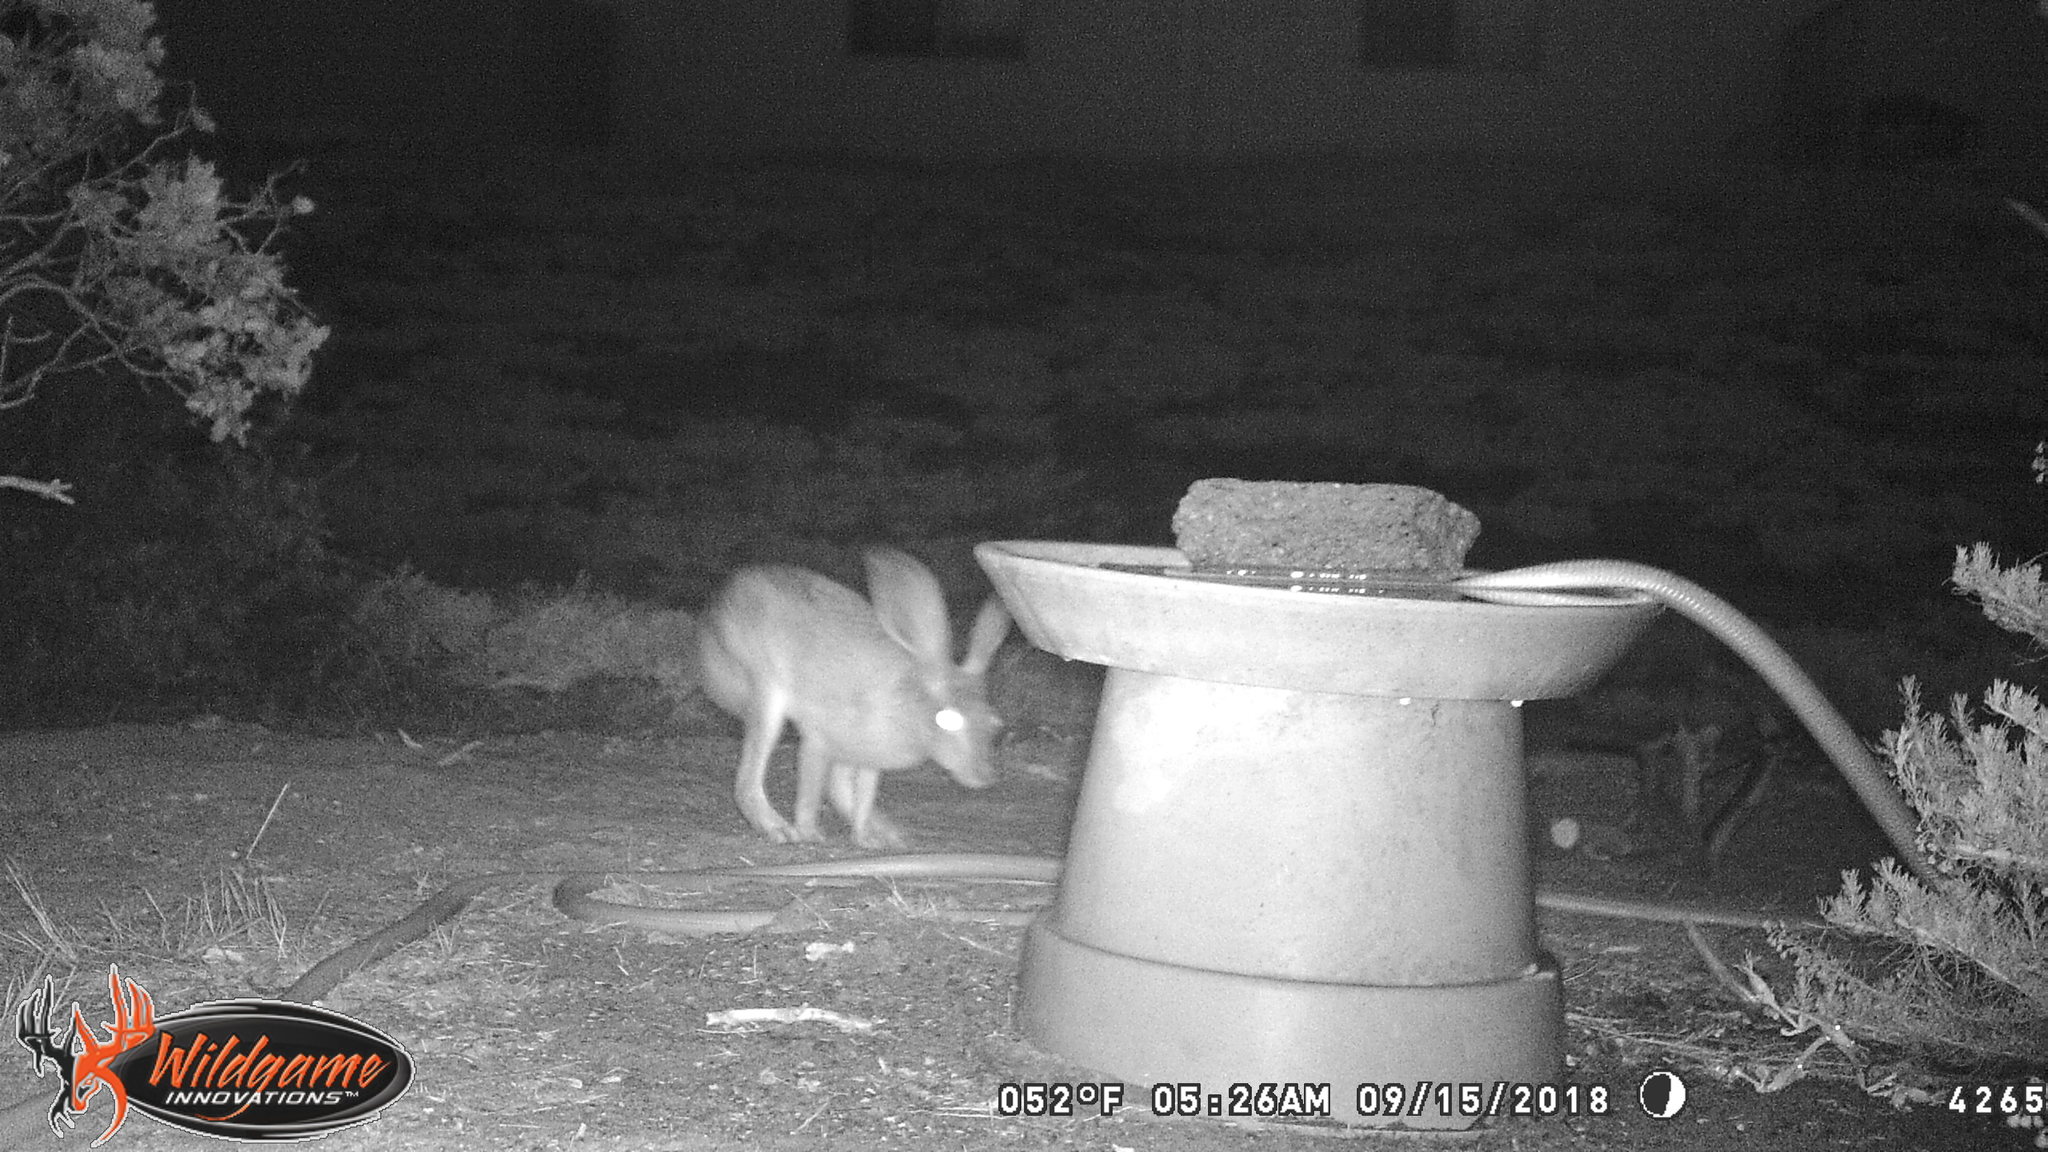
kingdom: Animalia
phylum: Chordata
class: Mammalia
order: Lagomorpha
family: Leporidae
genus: Lepus
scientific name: Lepus californicus
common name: Black-tailed jackrabbit
